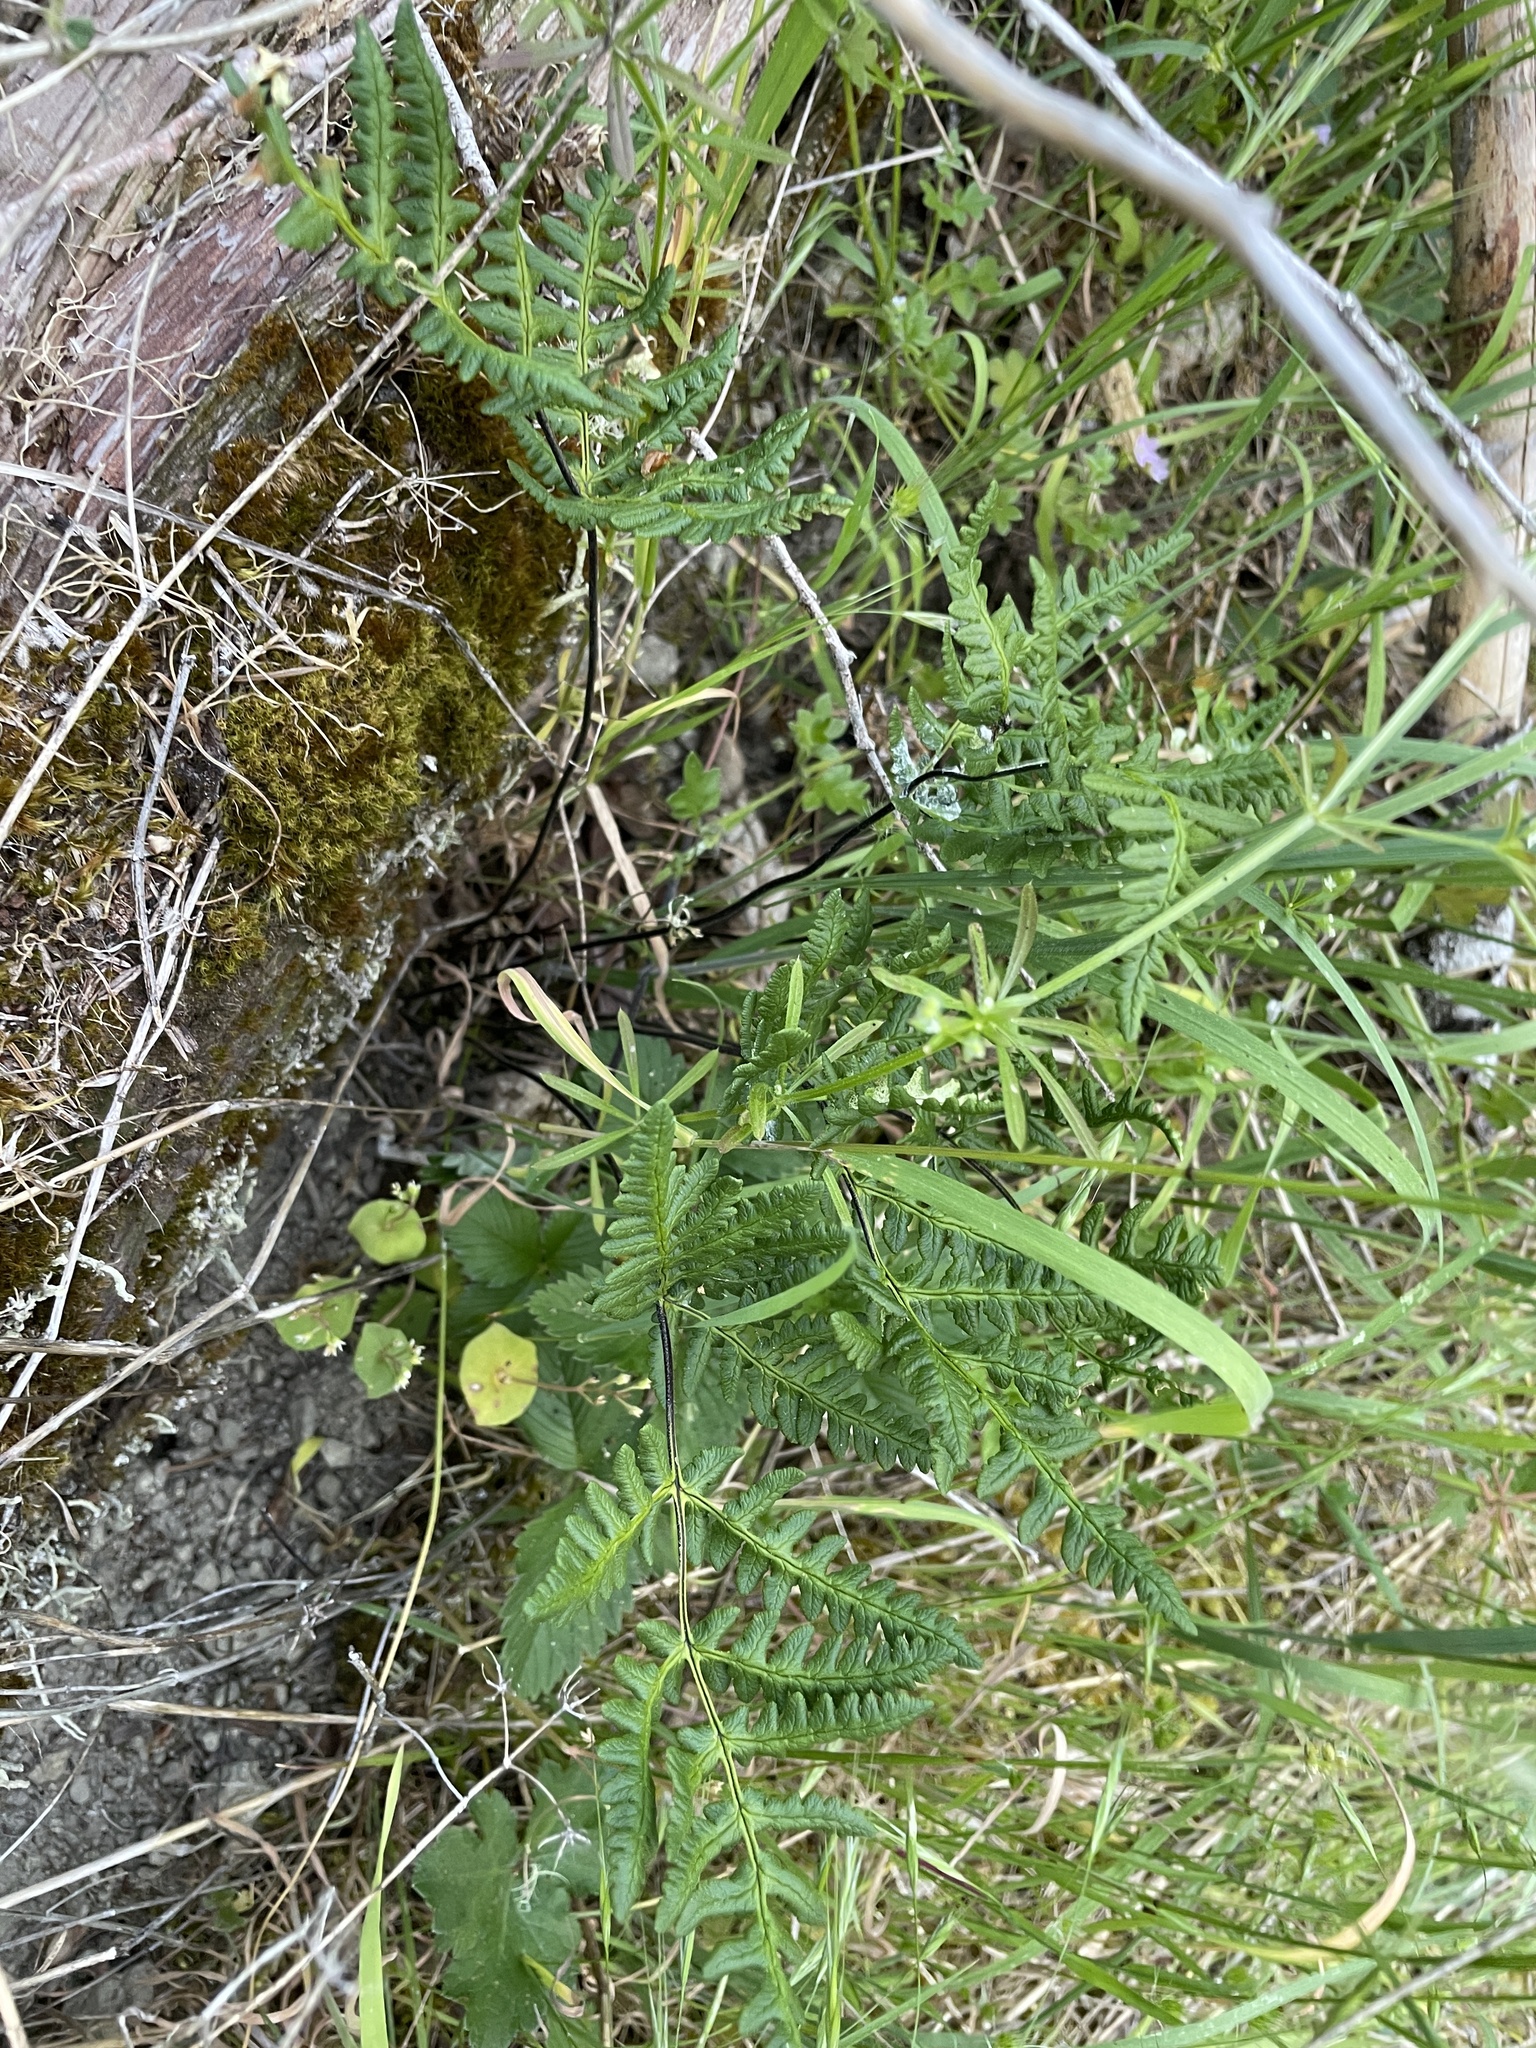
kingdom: Plantae
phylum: Tracheophyta
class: Polypodiopsida
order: Polypodiales
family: Pteridaceae
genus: Pentagramma
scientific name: Pentagramma triangularis
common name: Gold fern
